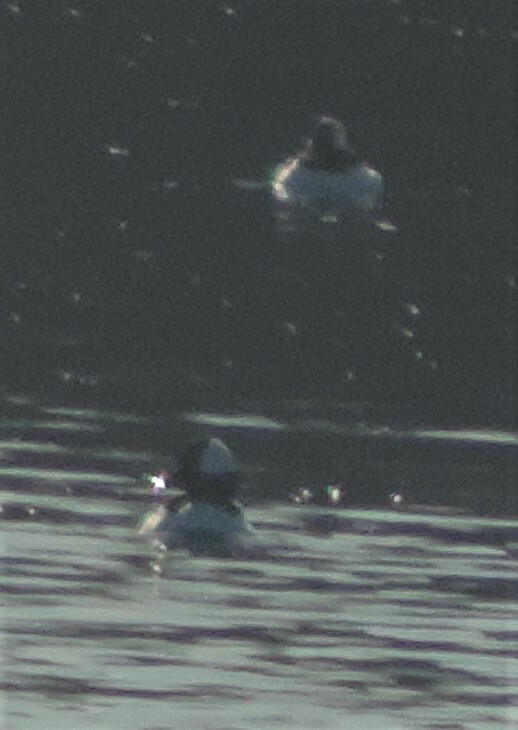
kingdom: Animalia
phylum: Chordata
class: Aves
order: Anseriformes
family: Anatidae
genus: Bucephala
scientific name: Bucephala albeola
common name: Bufflehead
